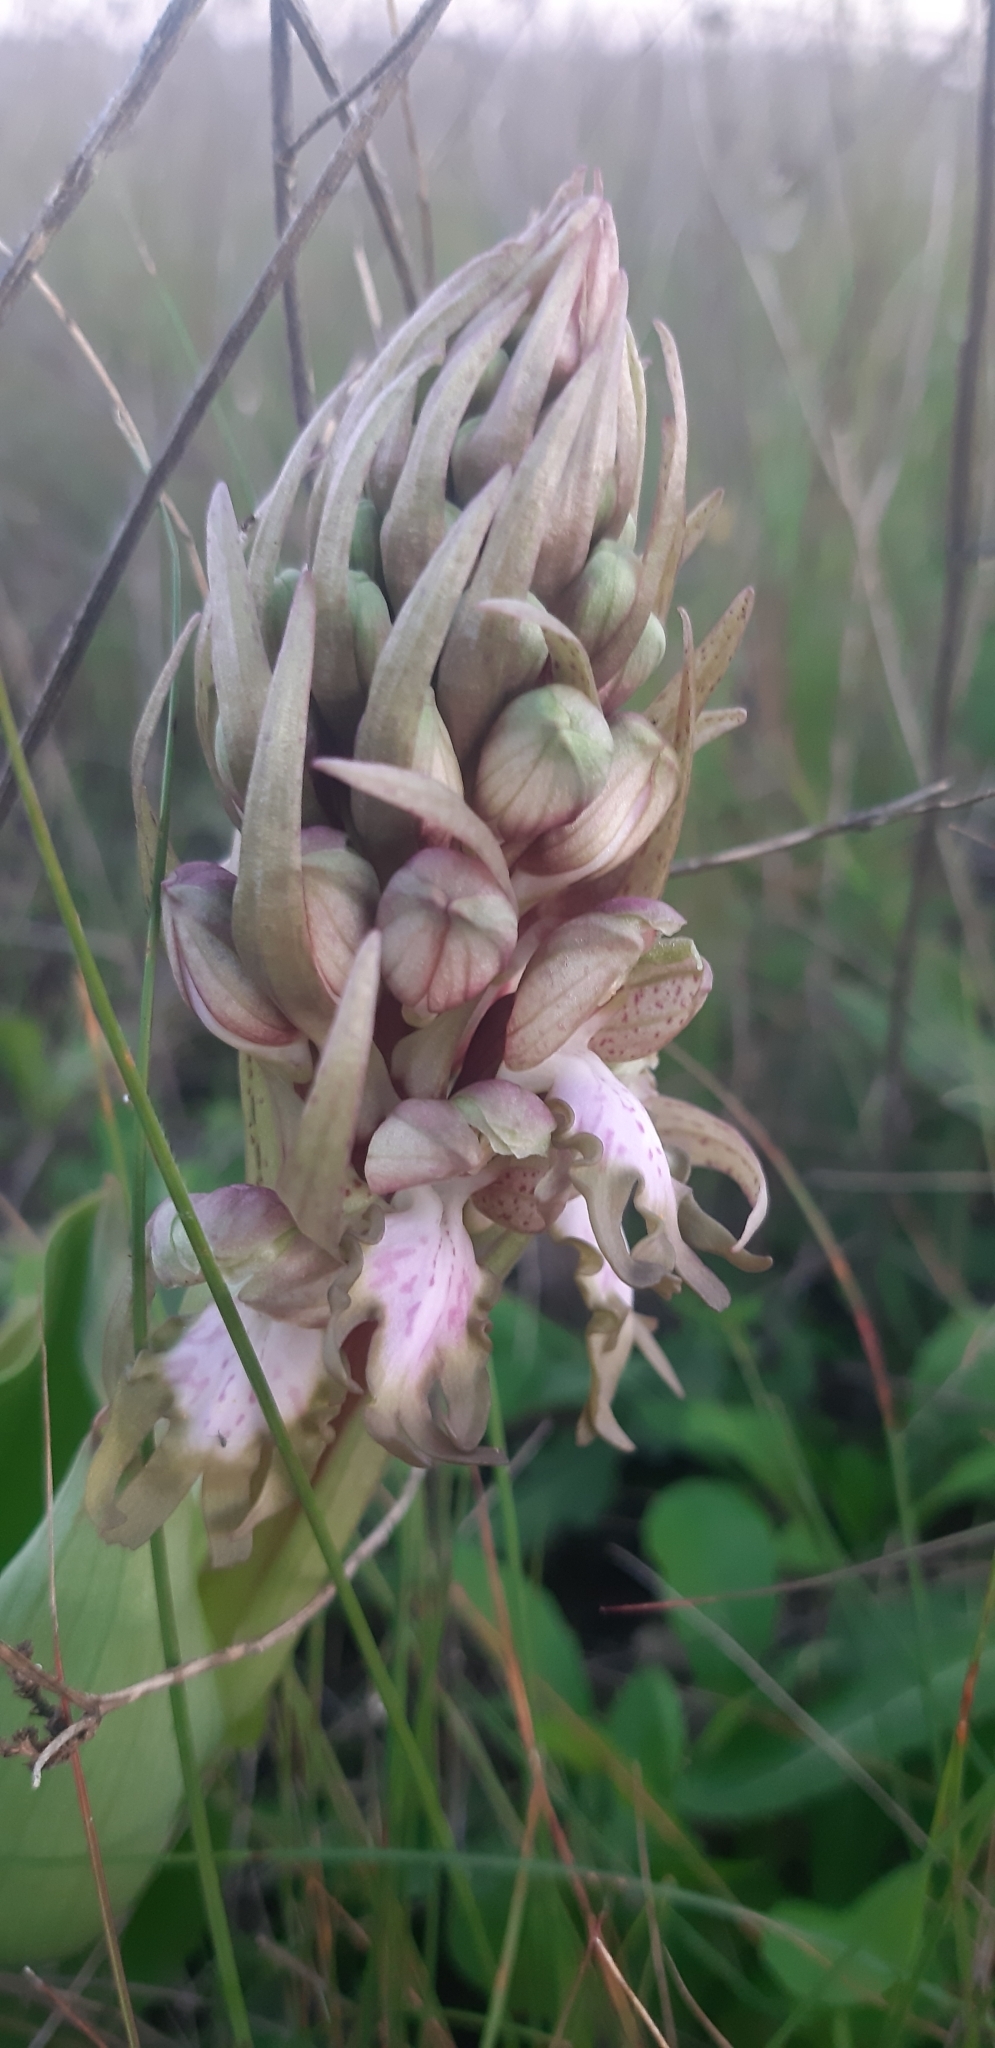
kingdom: Plantae
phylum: Tracheophyta
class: Liliopsida
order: Asparagales
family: Orchidaceae
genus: Himantoglossum
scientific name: Himantoglossum robertianum
